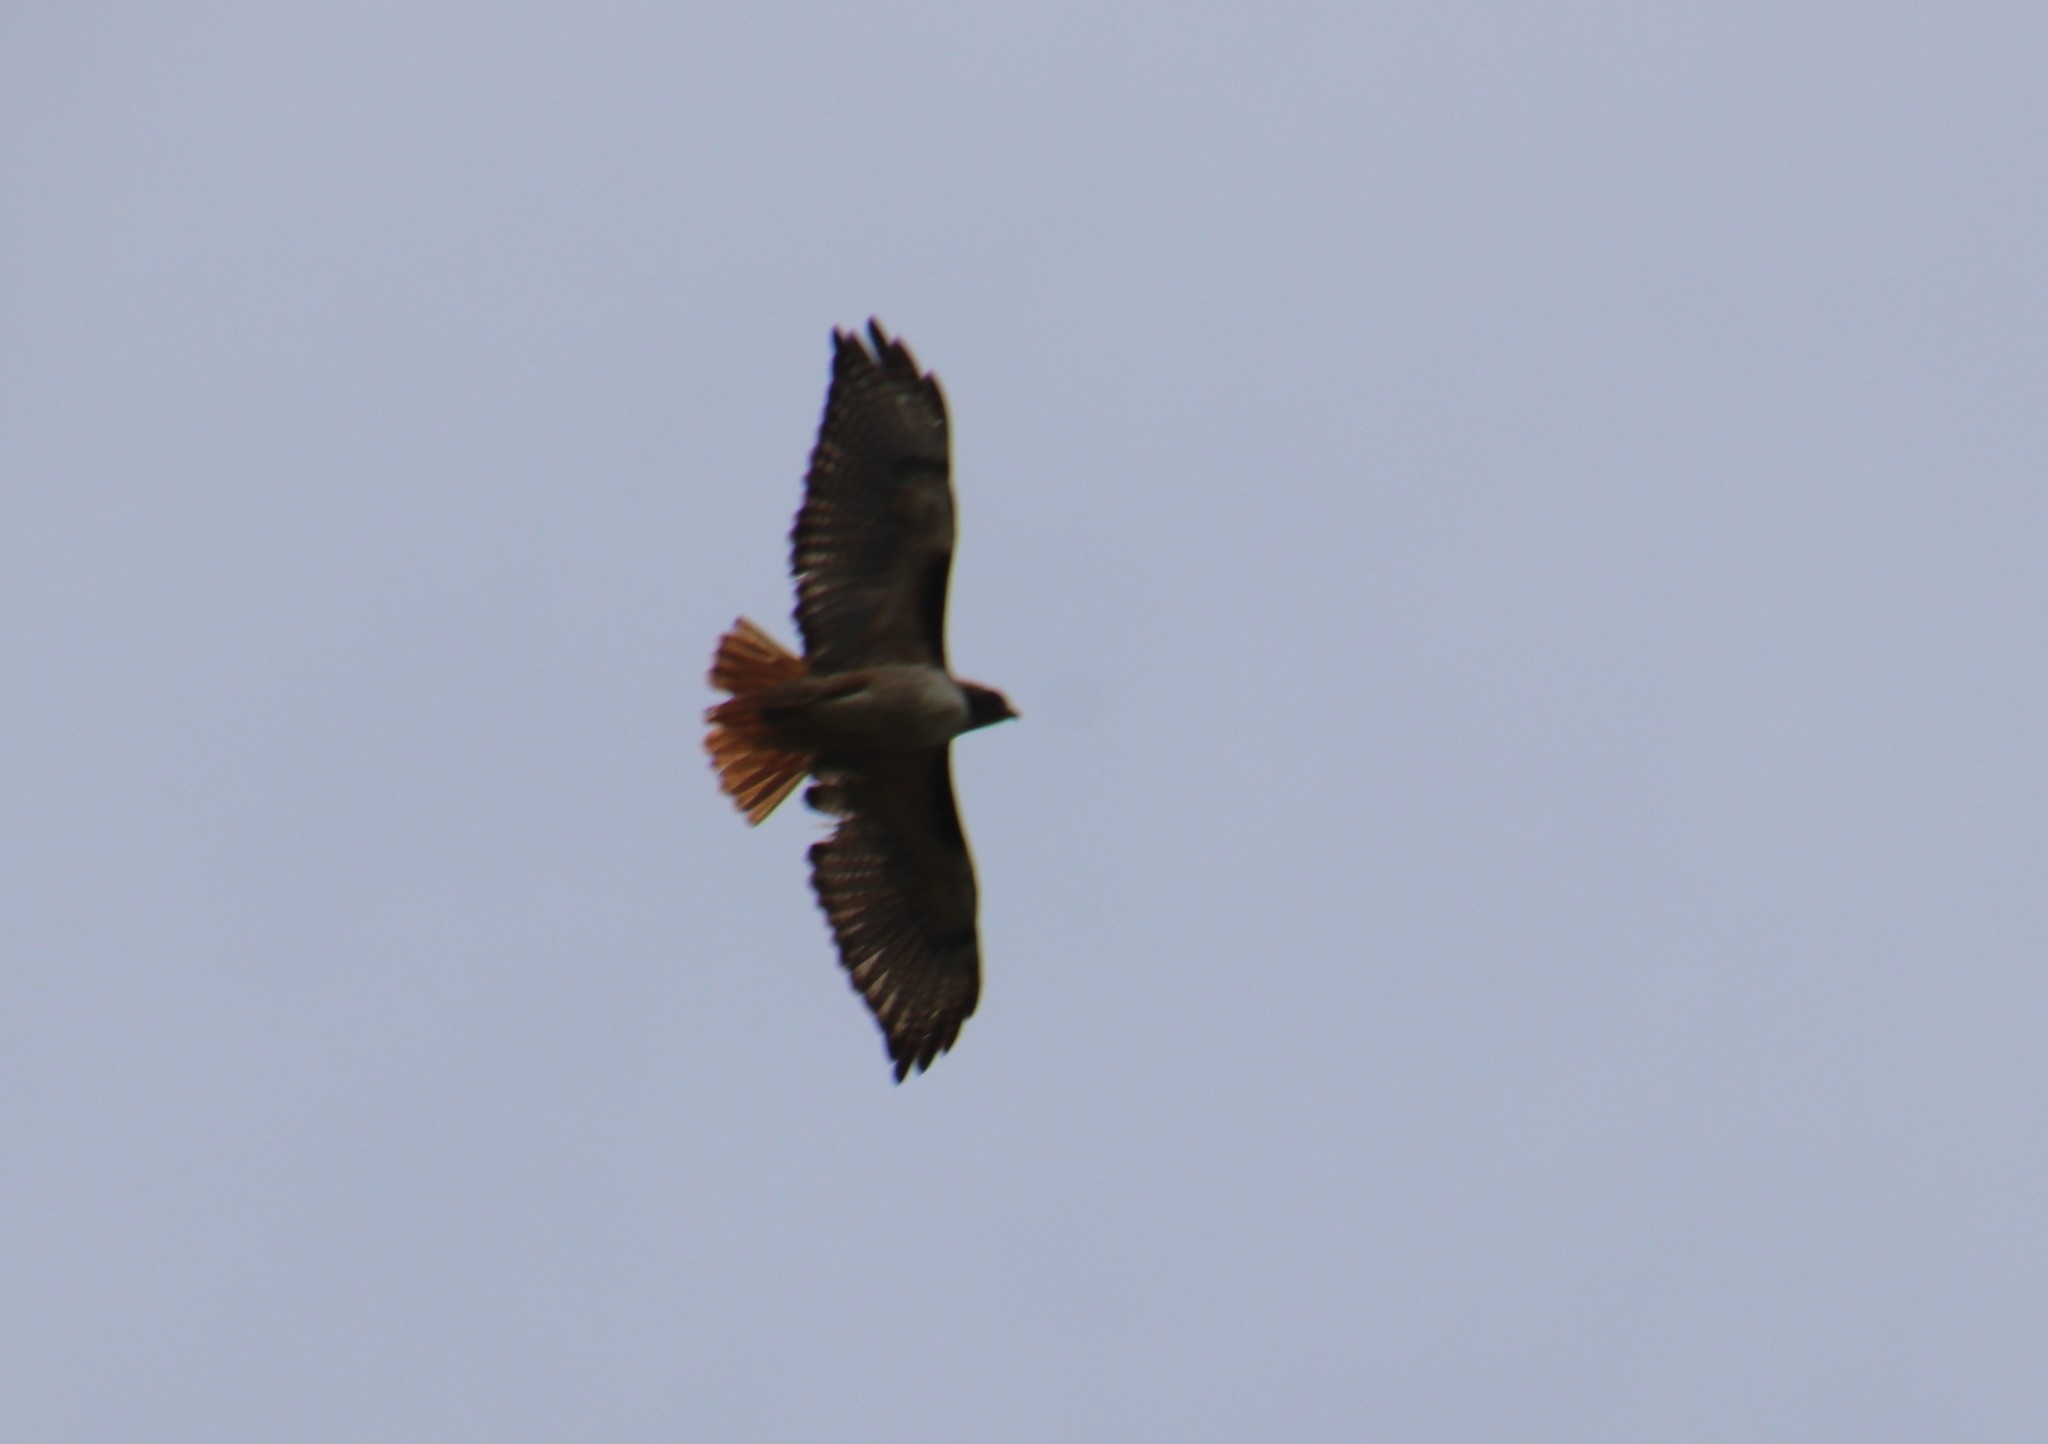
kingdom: Animalia
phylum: Chordata
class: Aves
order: Accipitriformes
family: Accipitridae
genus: Buteo
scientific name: Buteo jamaicensis
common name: Red-tailed hawk
